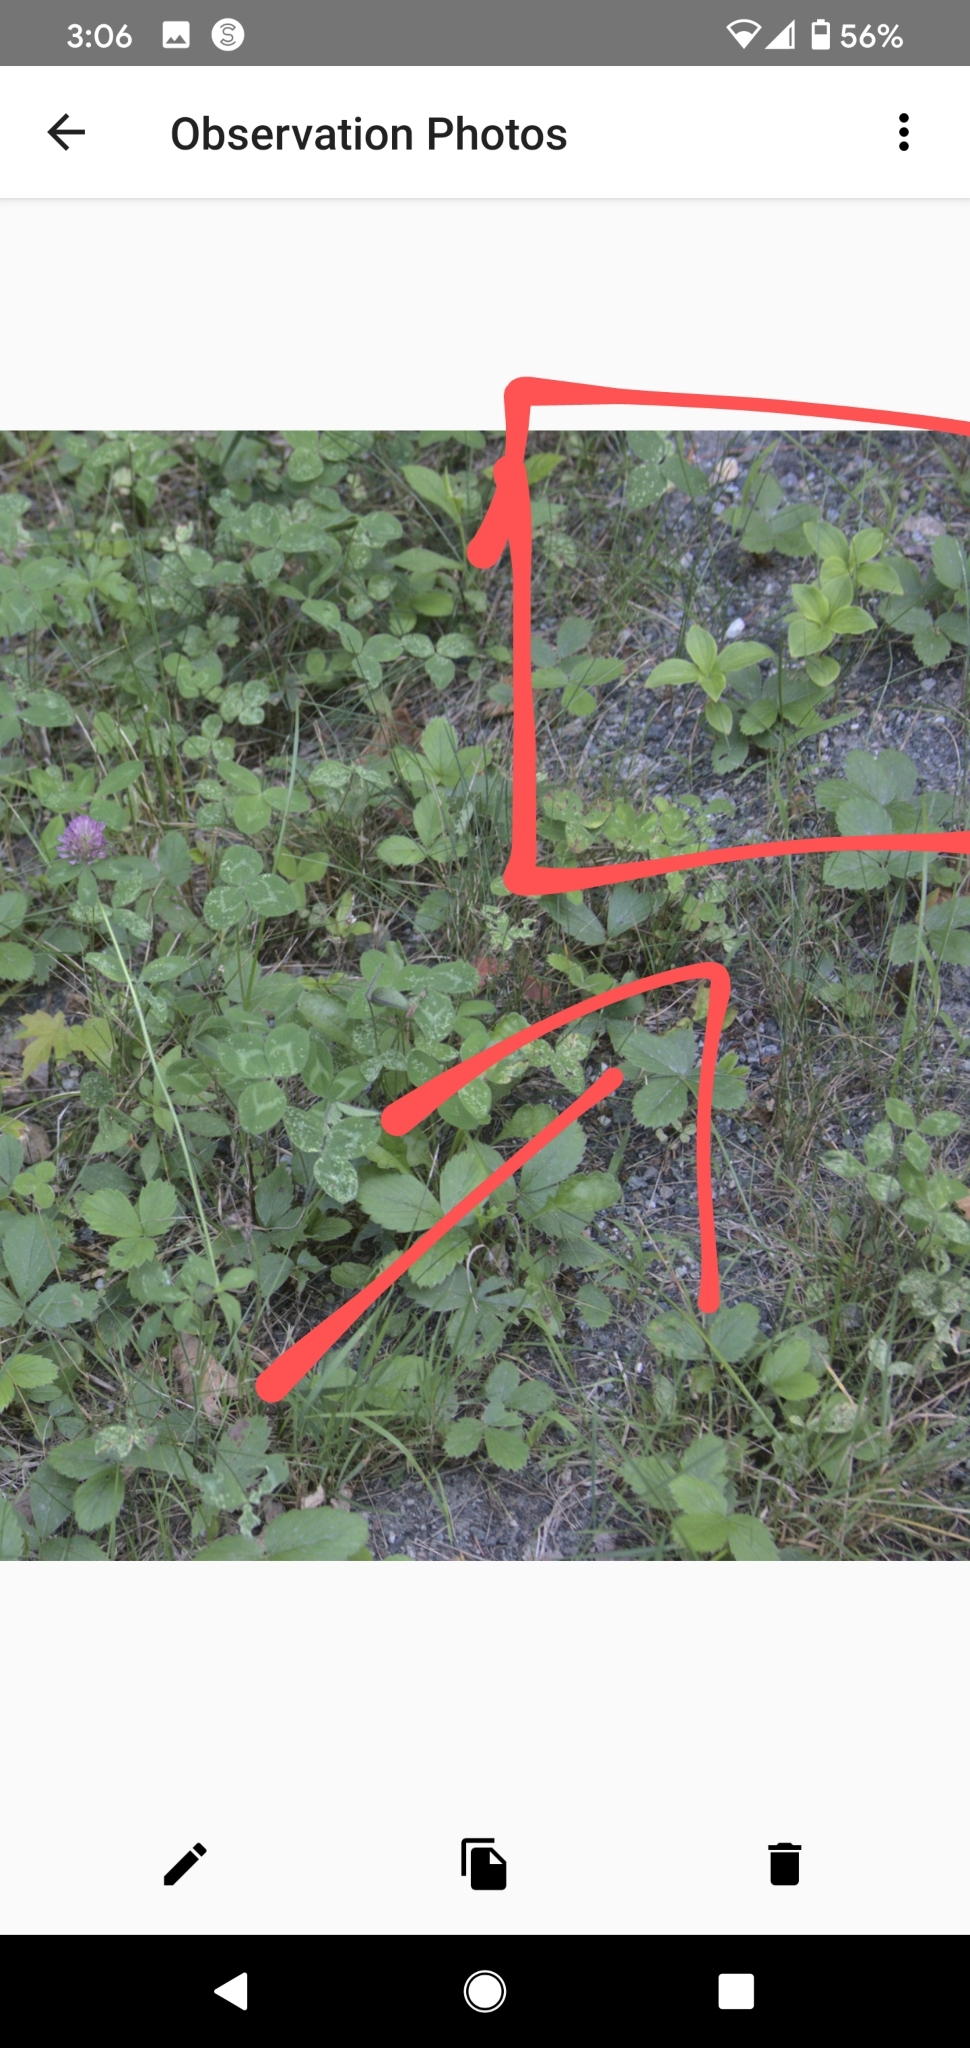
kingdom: Plantae
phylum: Tracheophyta
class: Magnoliopsida
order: Cornales
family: Cornaceae
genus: Cornus
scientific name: Cornus canadensis
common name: Creeping dogwood
